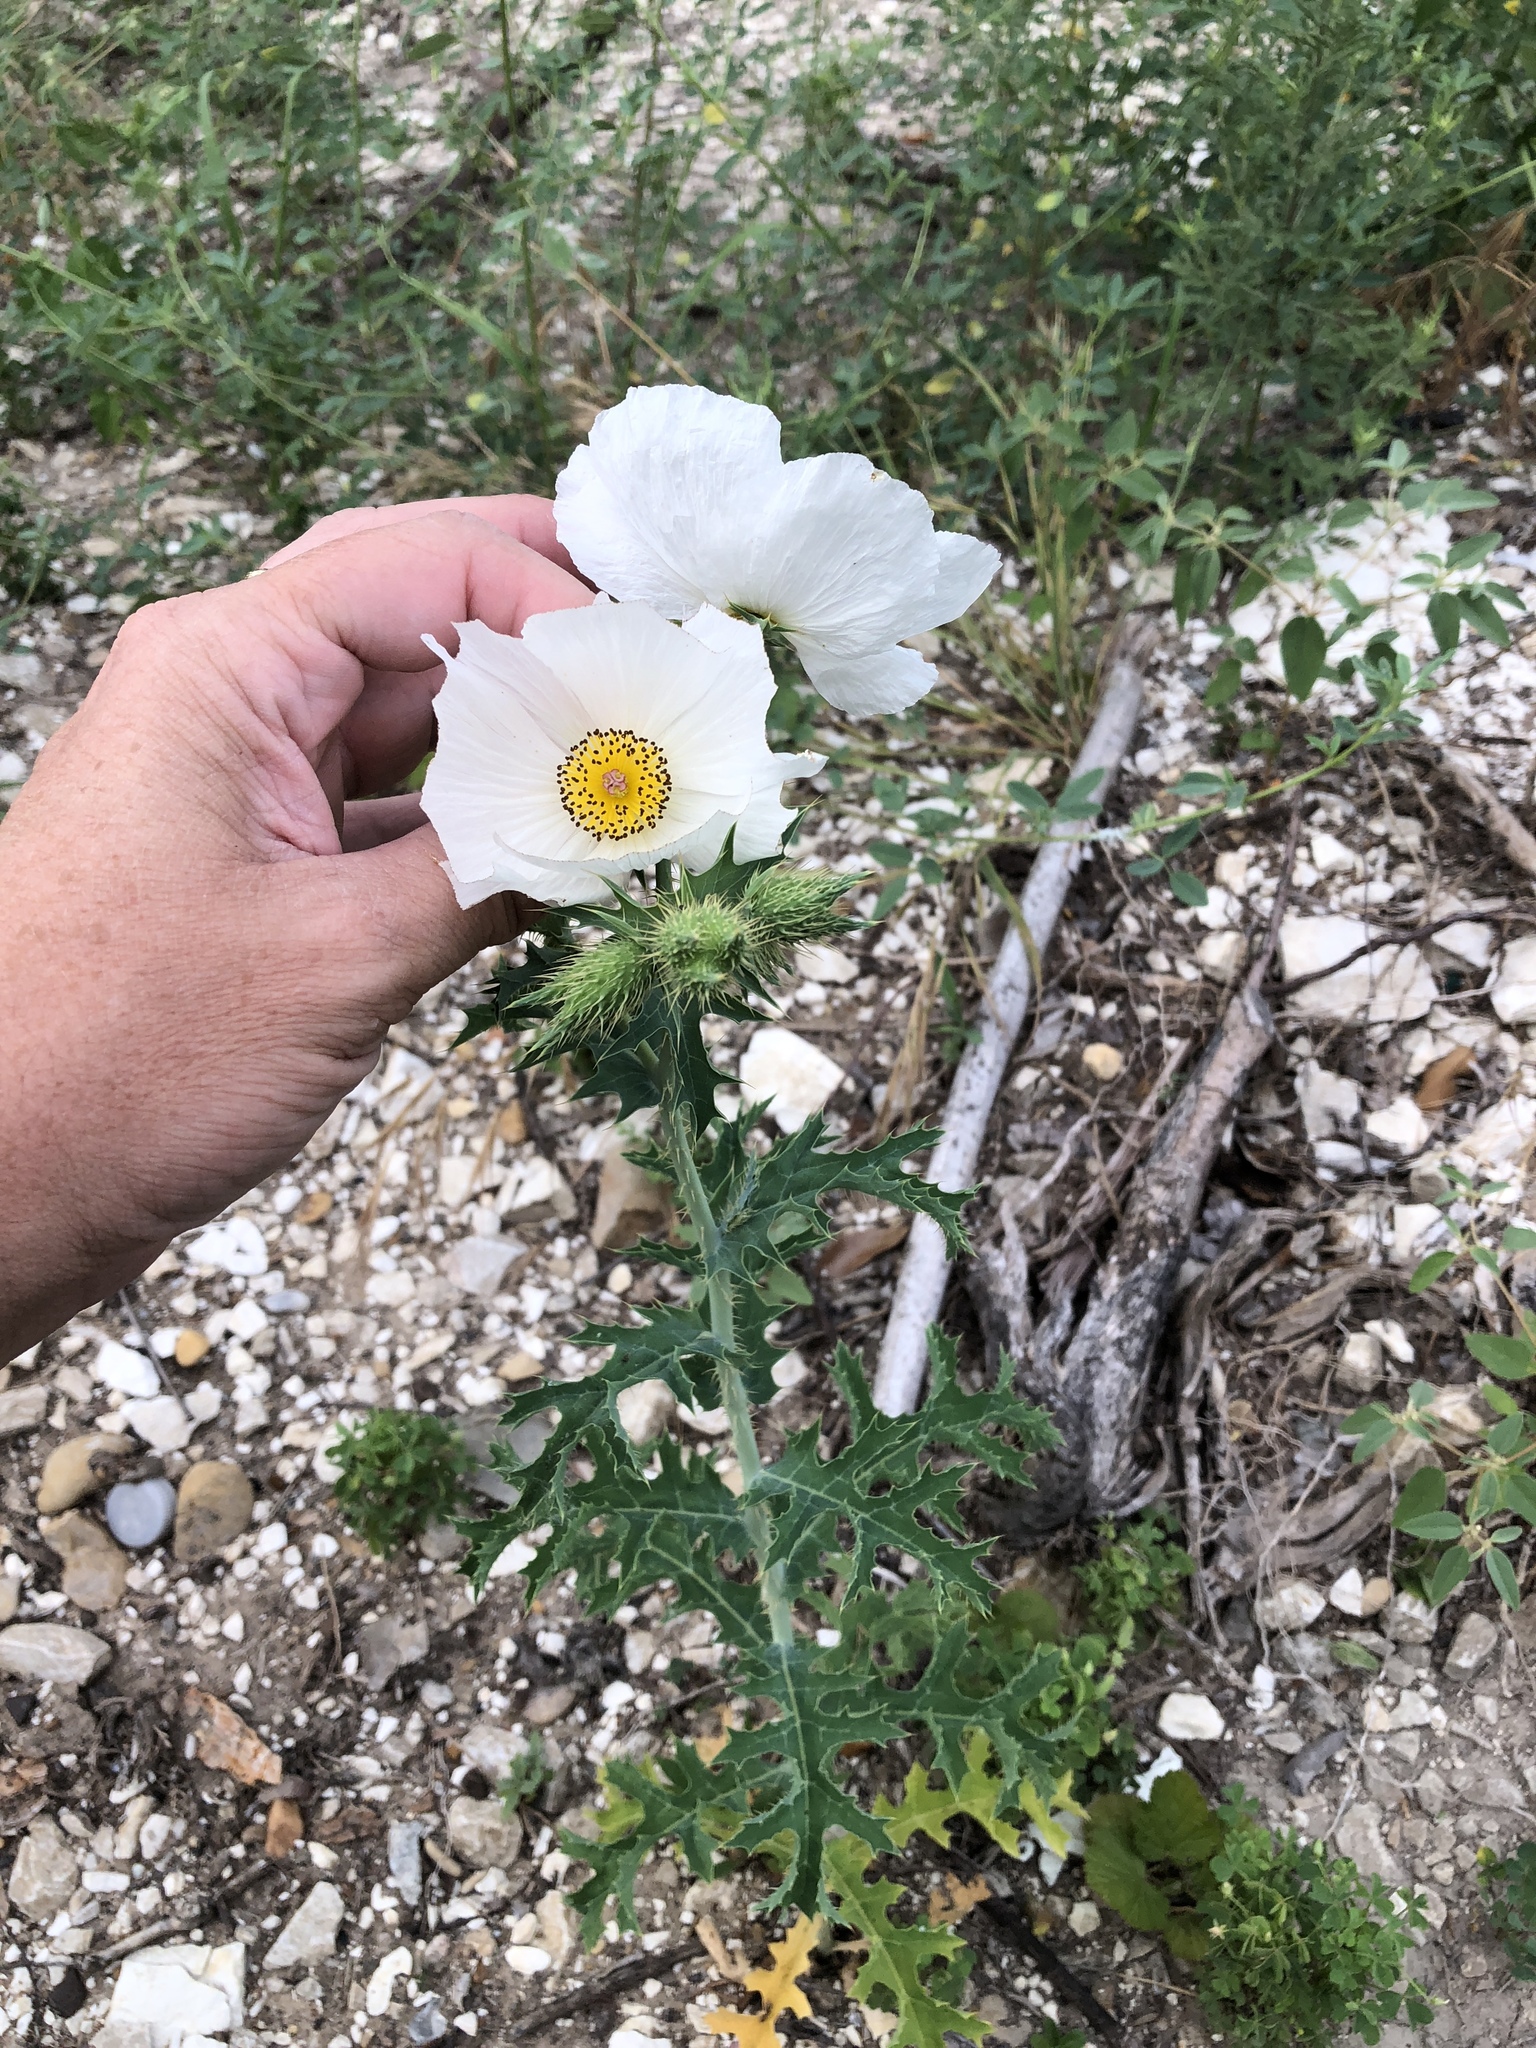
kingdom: Plantae
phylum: Tracheophyta
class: Magnoliopsida
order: Ranunculales
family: Papaveraceae
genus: Argemone
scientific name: Argemone albiflora
